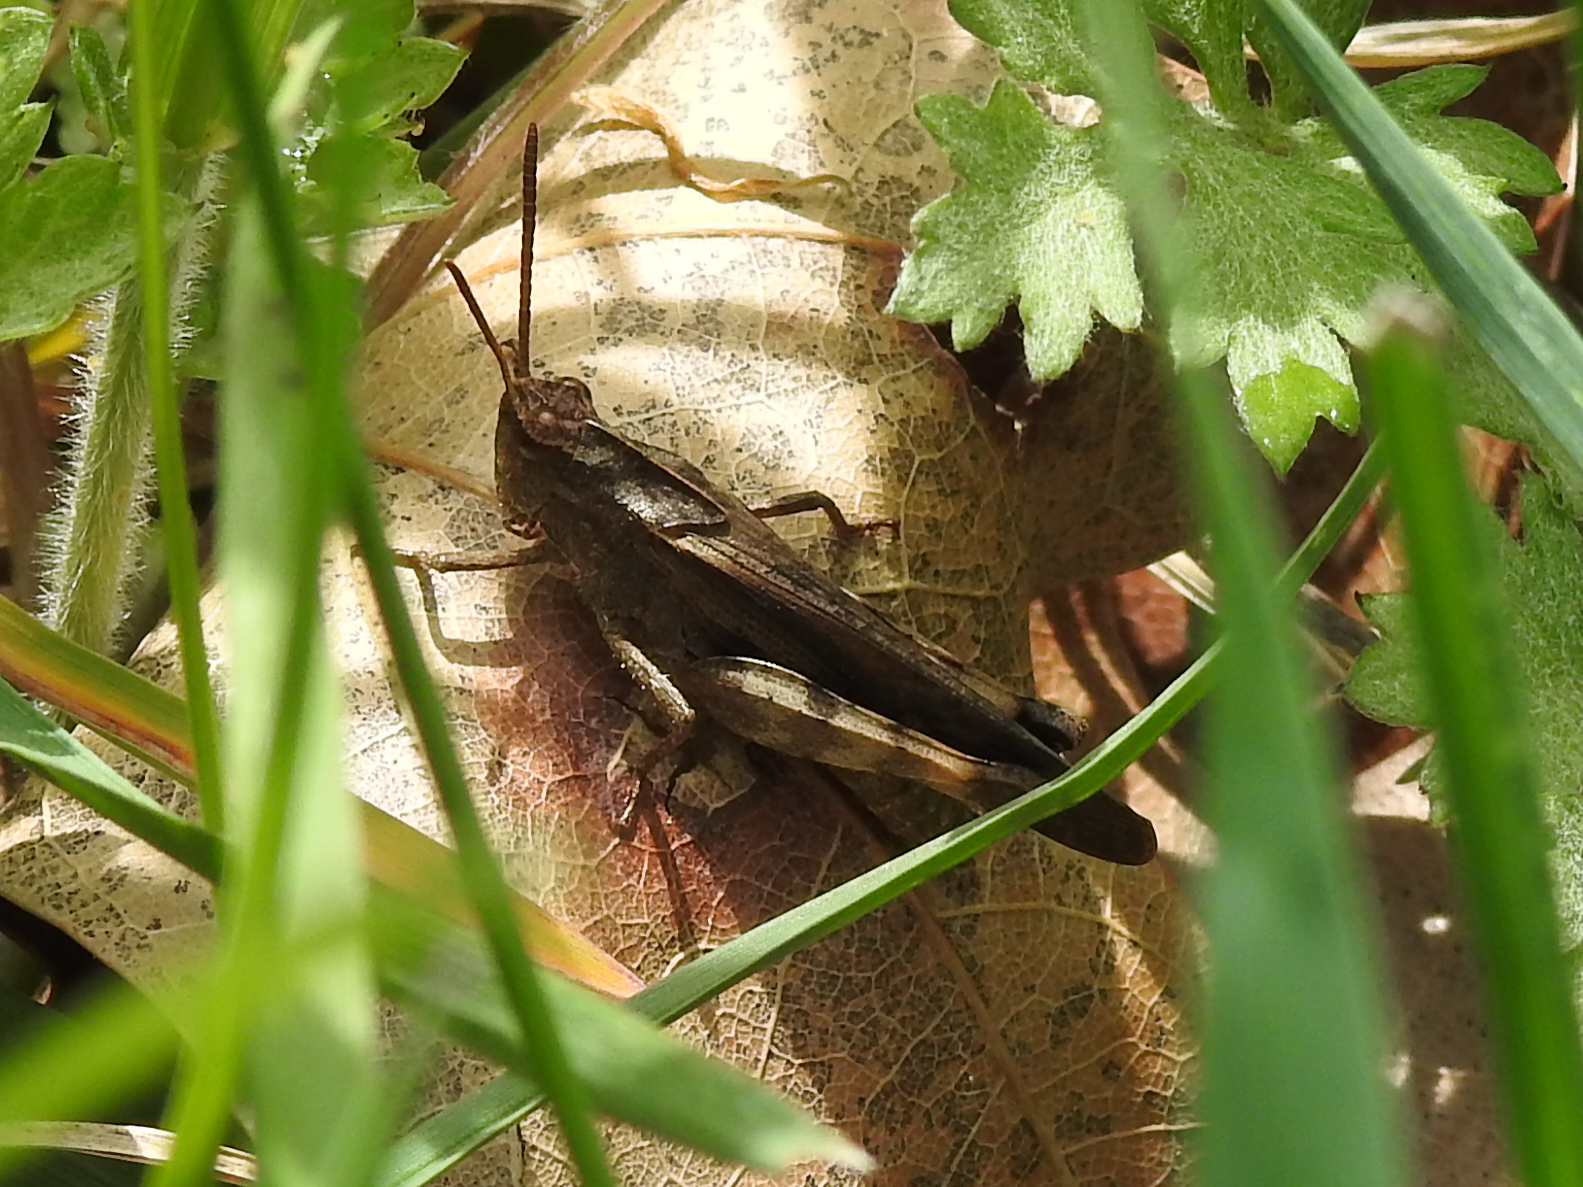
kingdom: Animalia
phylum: Arthropoda
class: Insecta
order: Orthoptera
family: Acrididae
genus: Chortophaga
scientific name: Chortophaga viridifasciata
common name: Green-striped grasshopper
